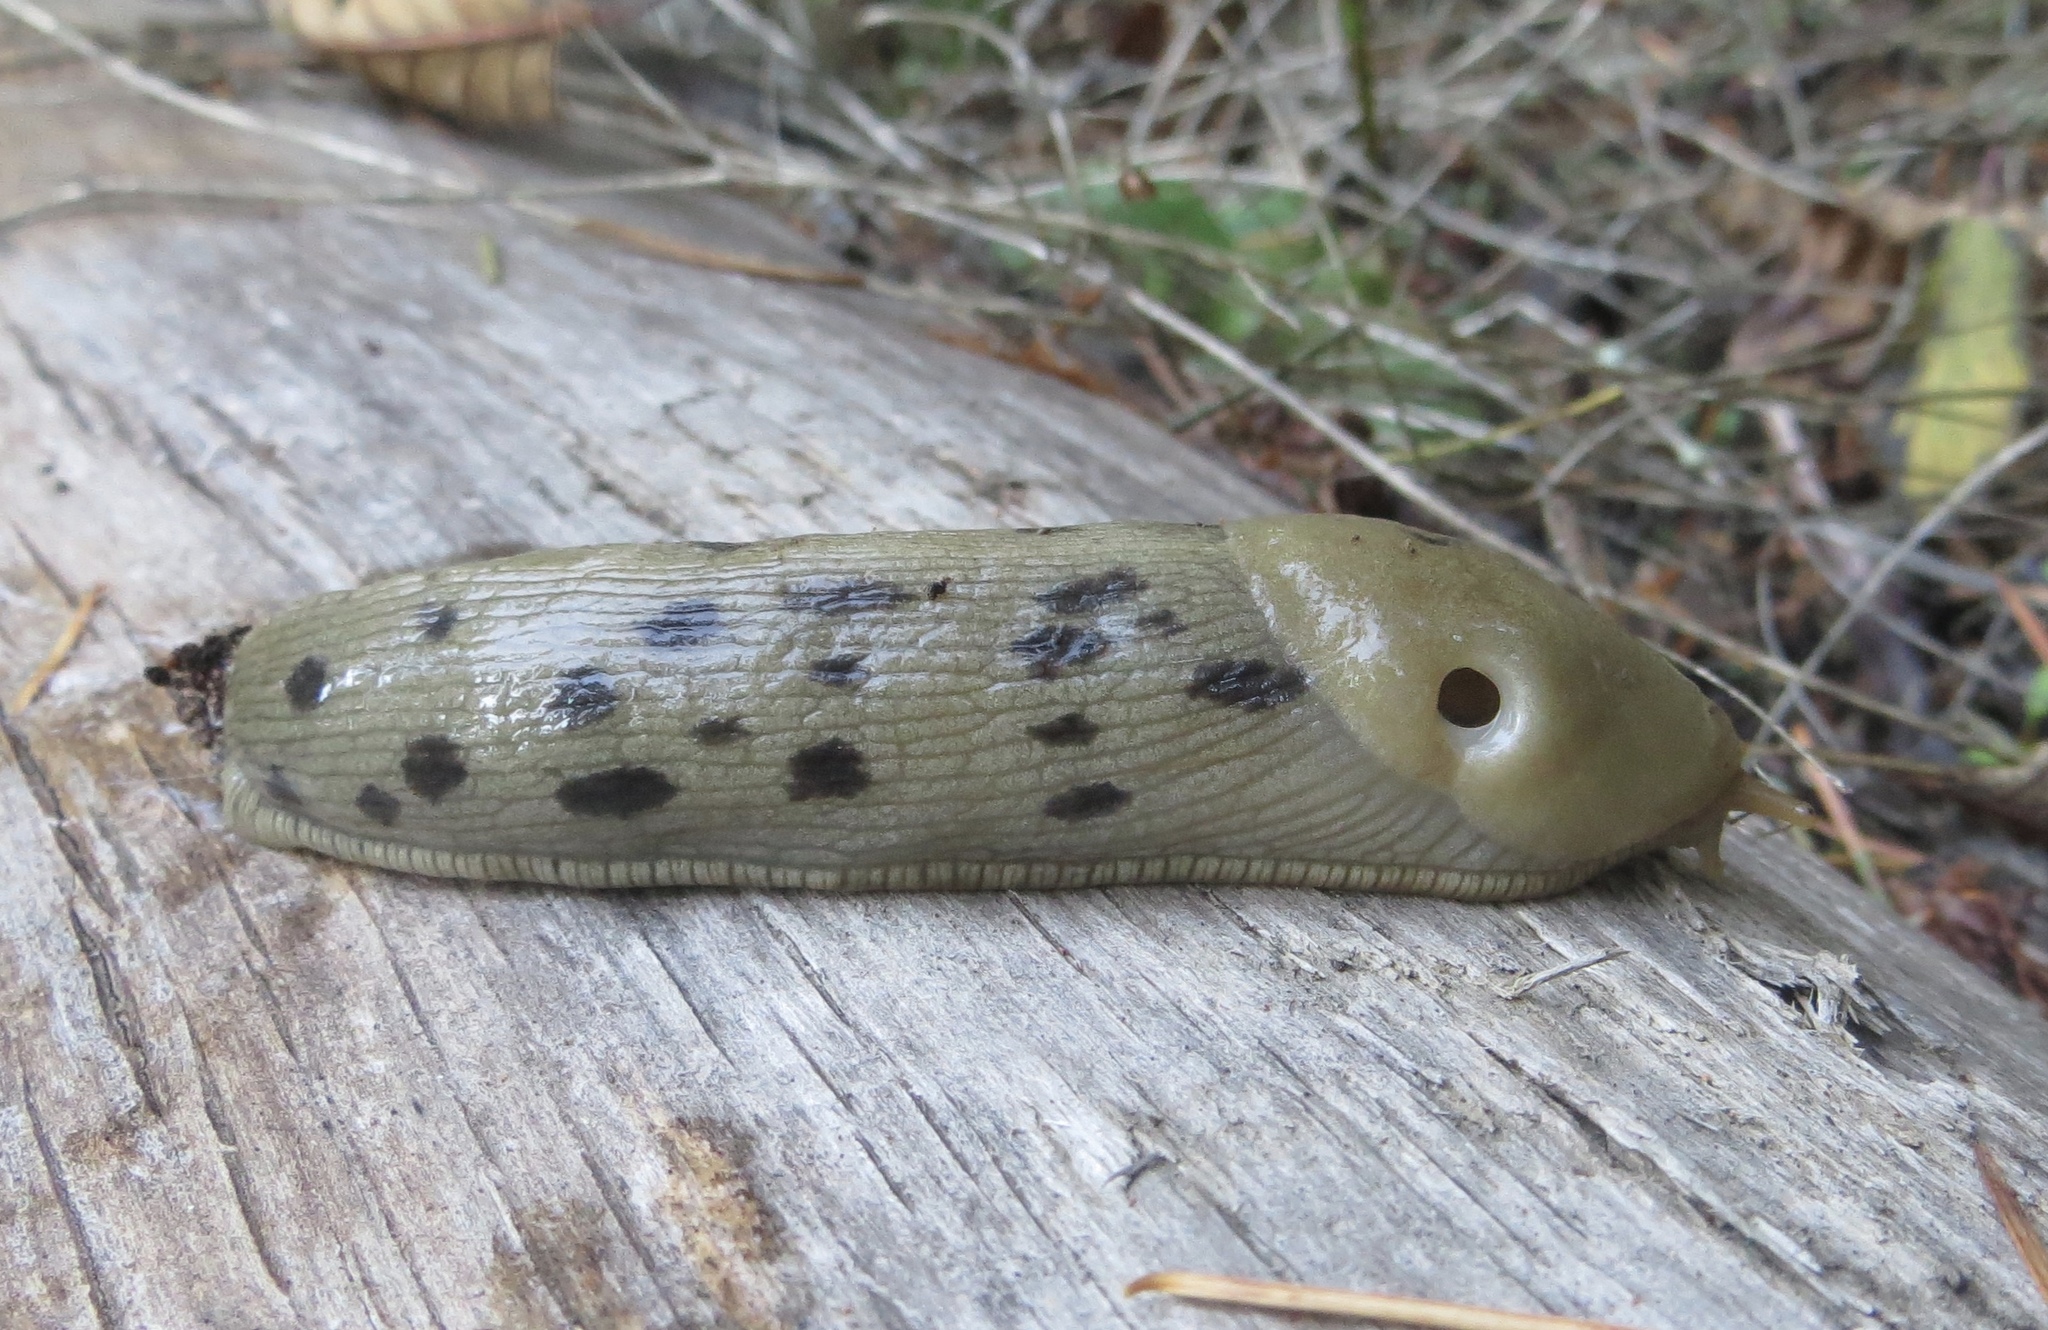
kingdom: Animalia
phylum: Mollusca
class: Gastropoda
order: Stylommatophora
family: Ariolimacidae
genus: Ariolimax
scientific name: Ariolimax columbianus
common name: Pacific banana slug
